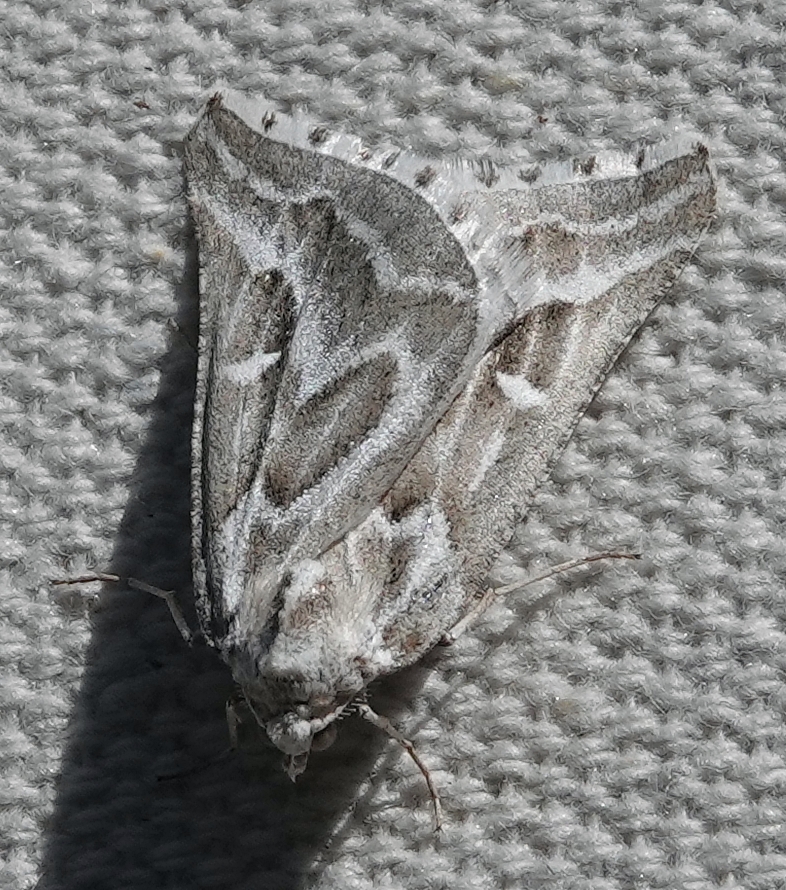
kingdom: Animalia
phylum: Arthropoda
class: Insecta
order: Lepidoptera
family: Geometridae
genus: Plataea
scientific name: Plataea trilinearia
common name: Sagebrush girdle moth
